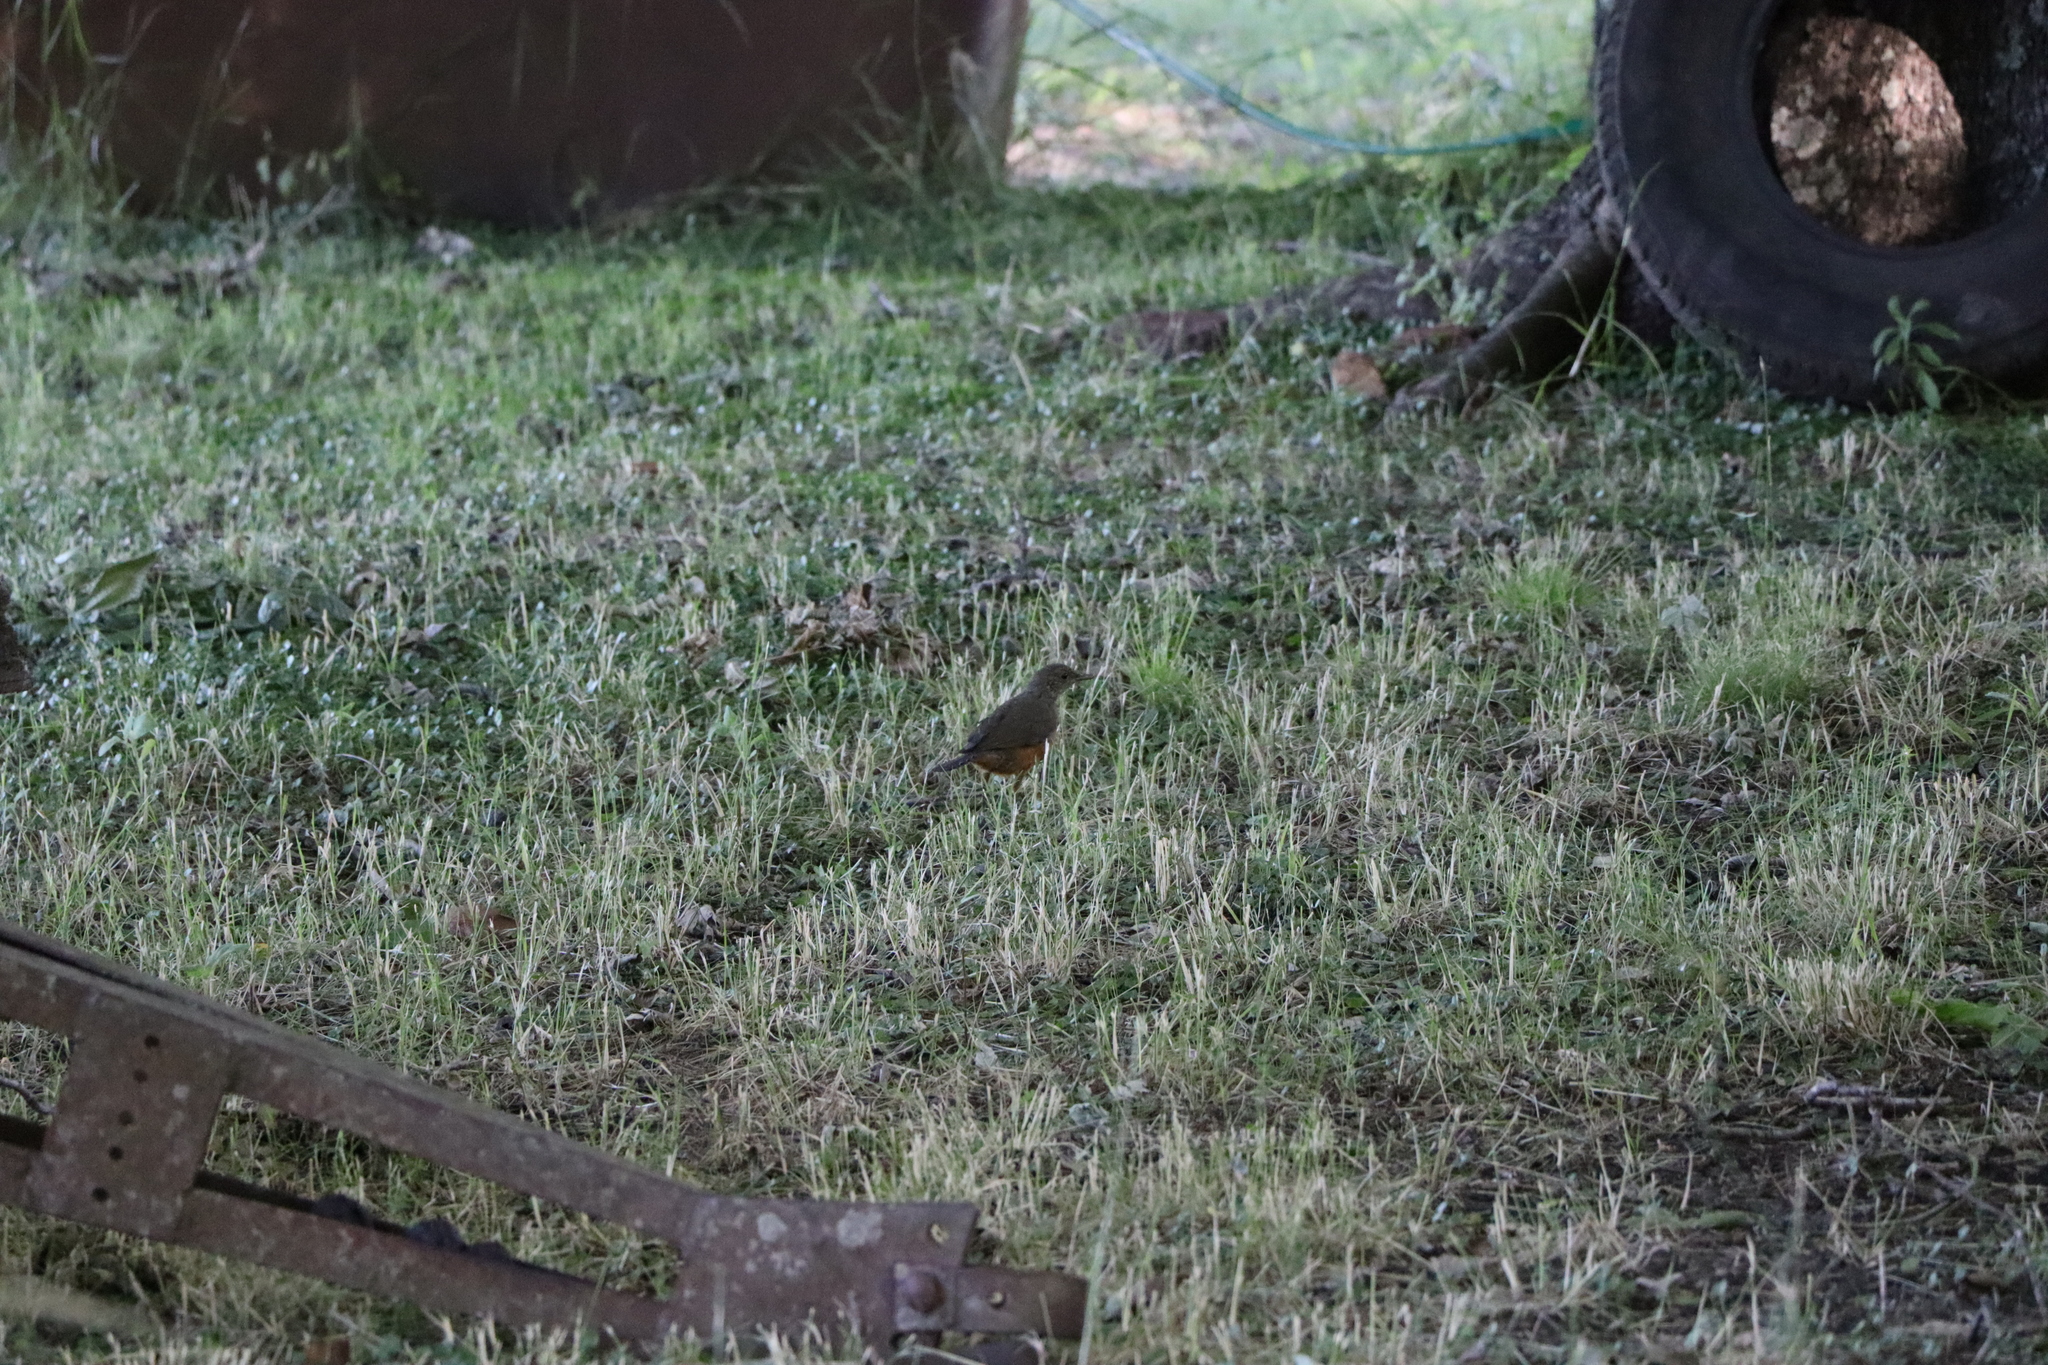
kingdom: Animalia
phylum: Chordata
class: Aves
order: Passeriformes
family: Turdidae
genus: Turdus
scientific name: Turdus rufiventris
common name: Rufous-bellied thrush
